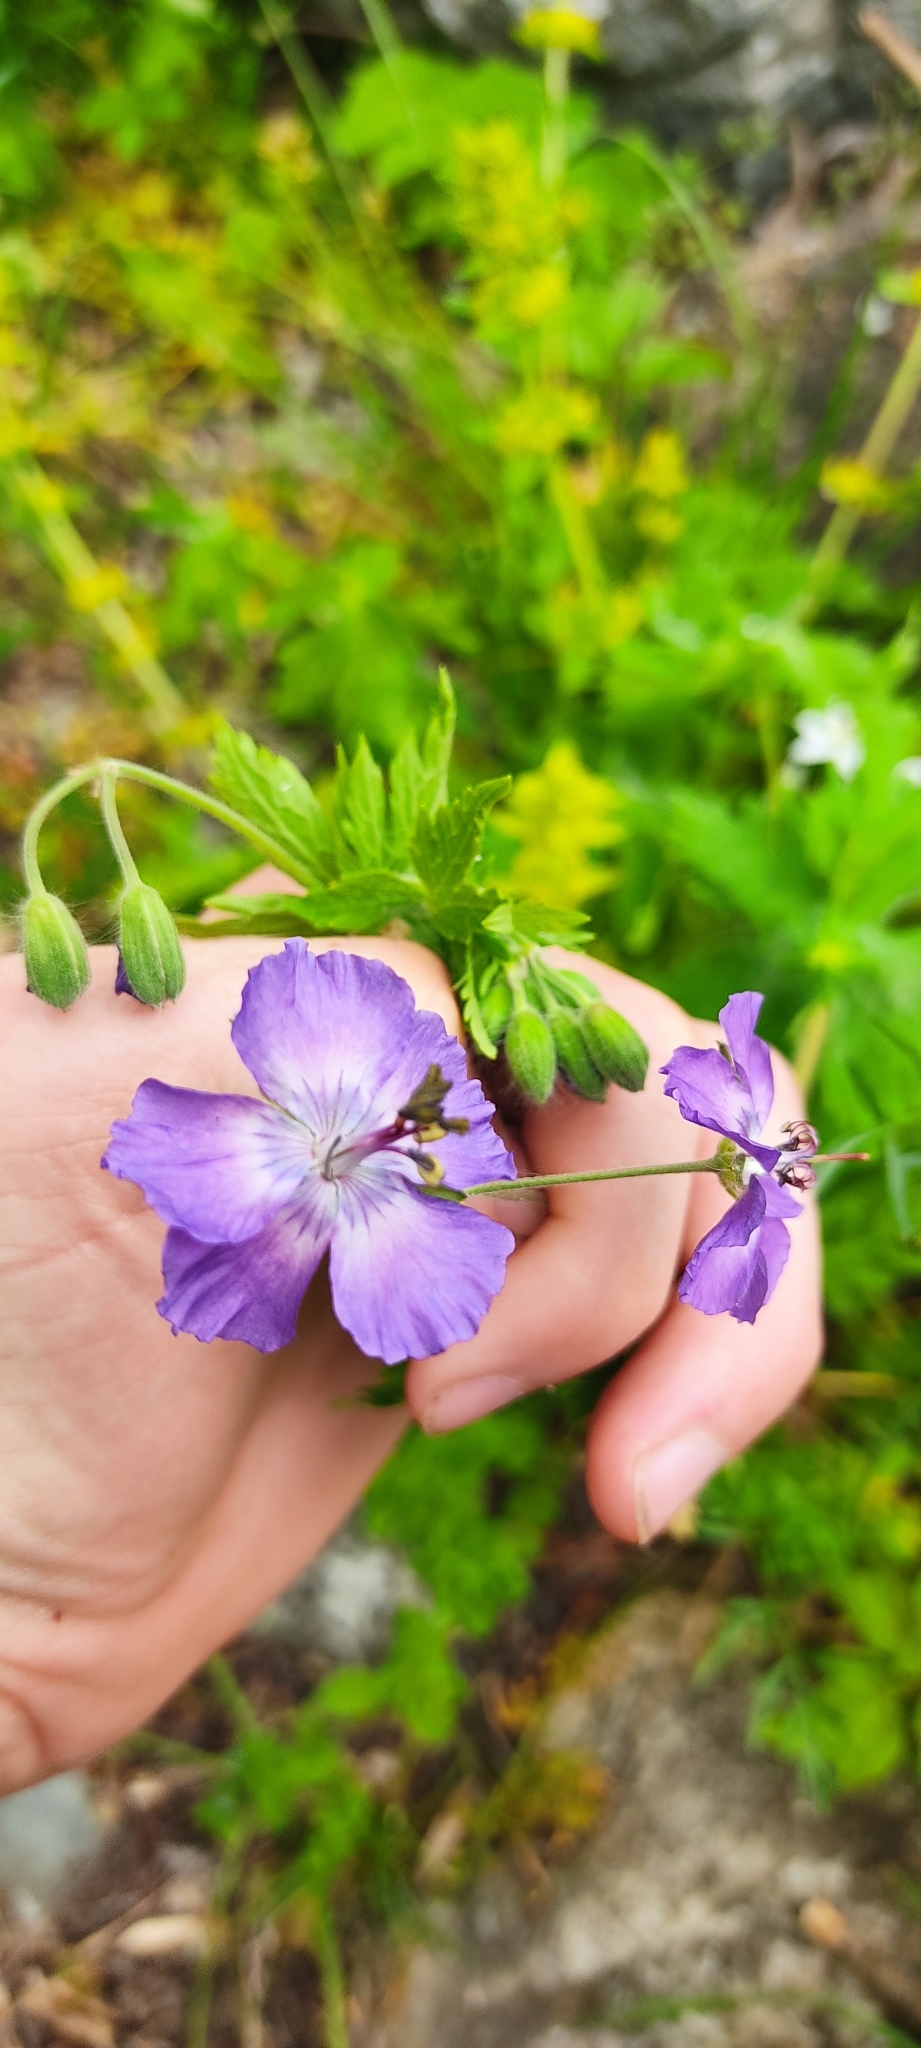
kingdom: Plantae
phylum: Tracheophyta
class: Magnoliopsida
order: Geraniales
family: Geraniaceae
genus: Geranium
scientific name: Geranium phaeum
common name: Dusky crane's-bill
